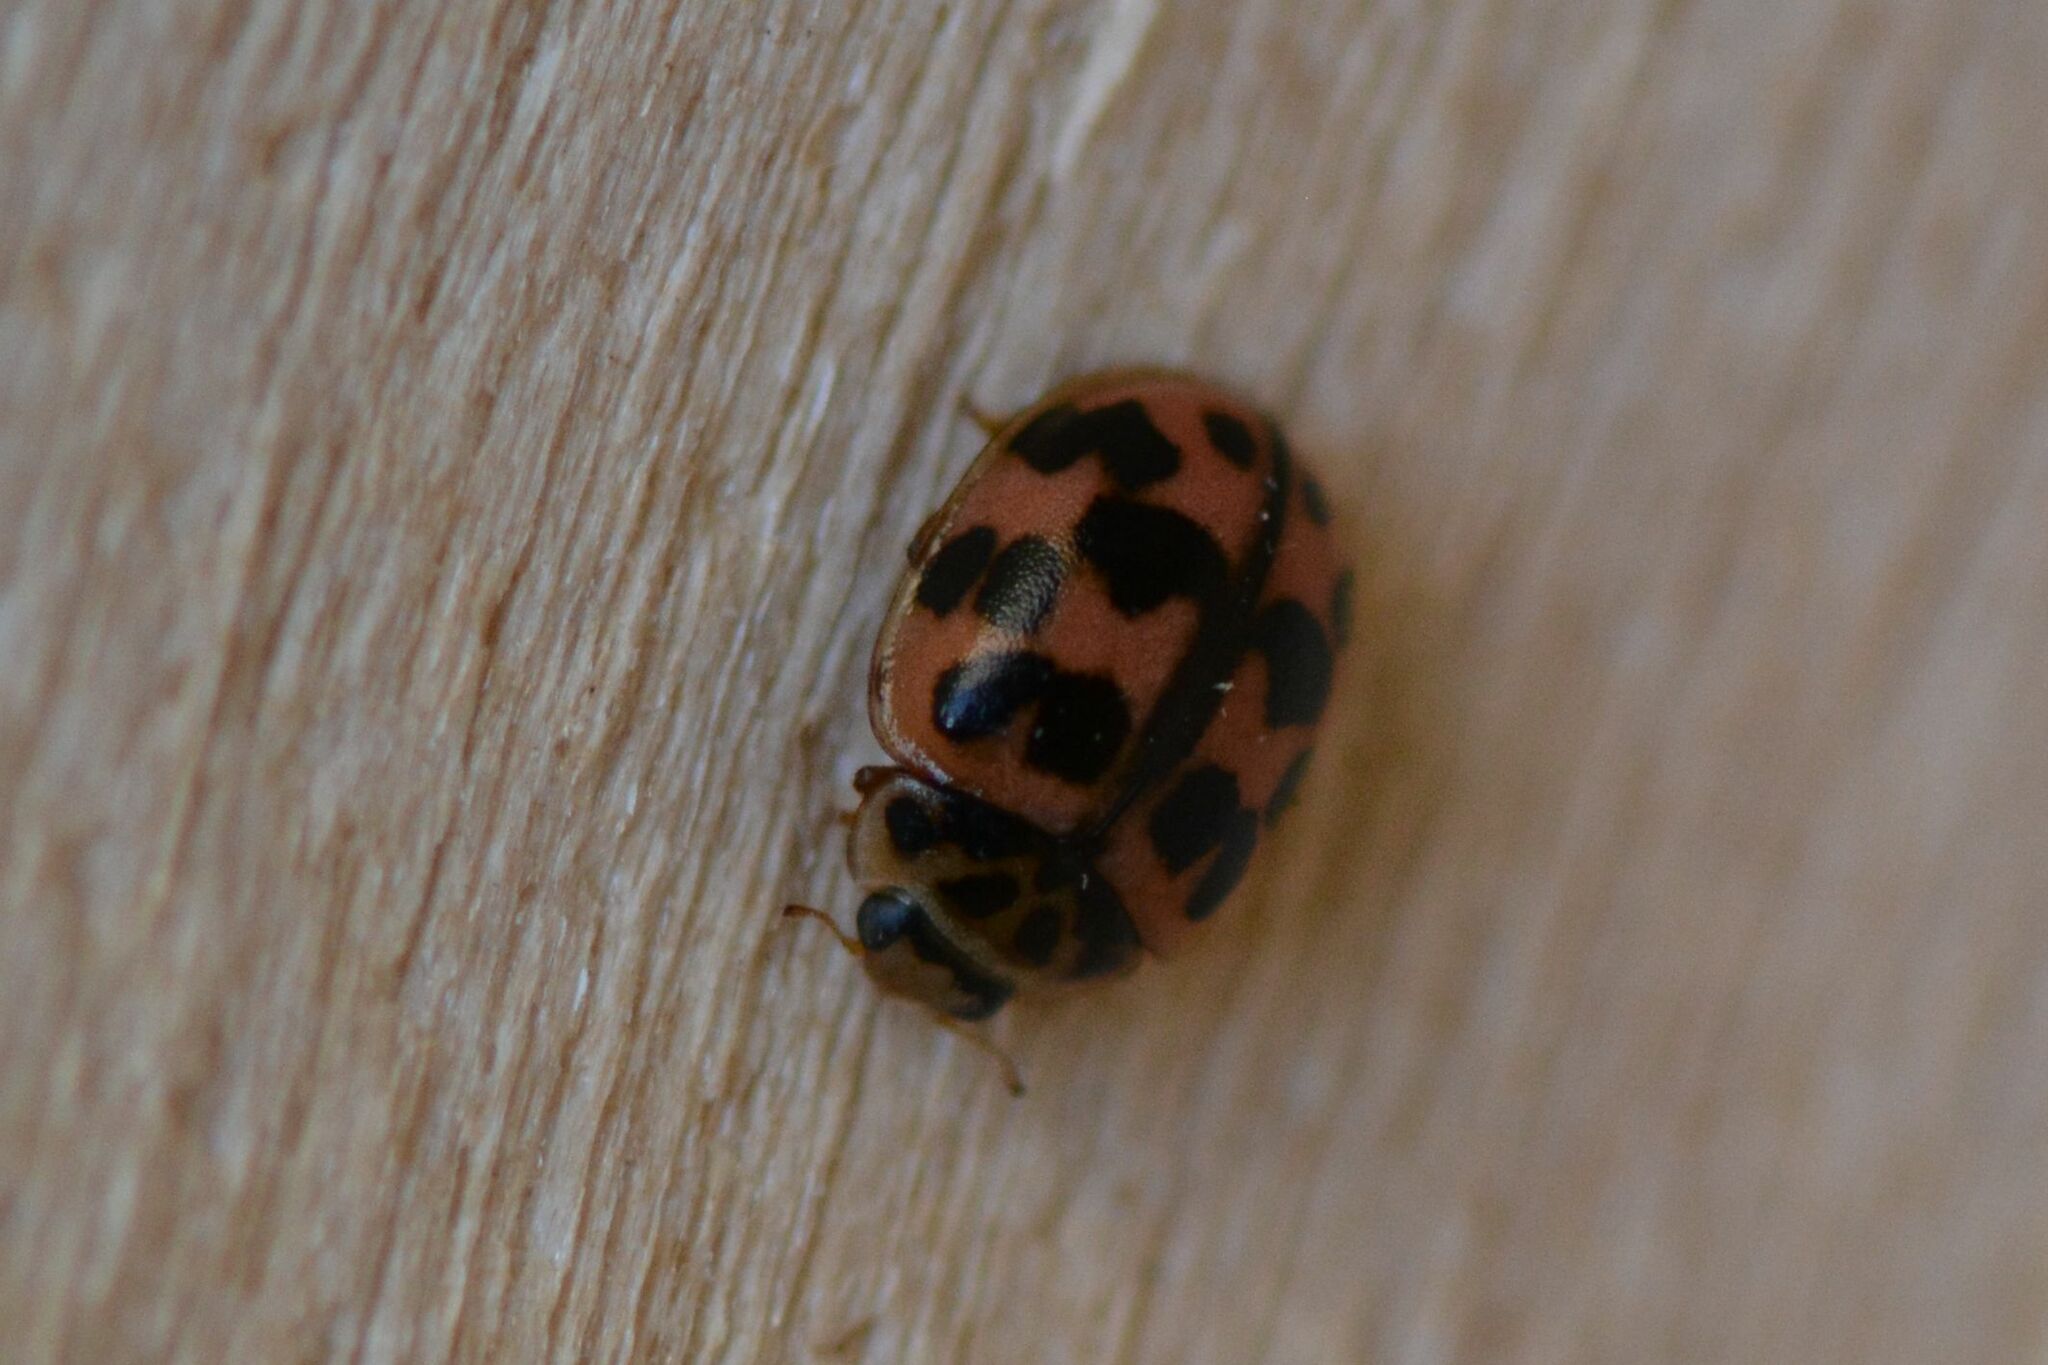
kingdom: Animalia
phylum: Arthropoda
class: Insecta
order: Coleoptera
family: Coccinellidae
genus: Oenopia
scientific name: Oenopia conglobata
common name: Ladybird beetle
